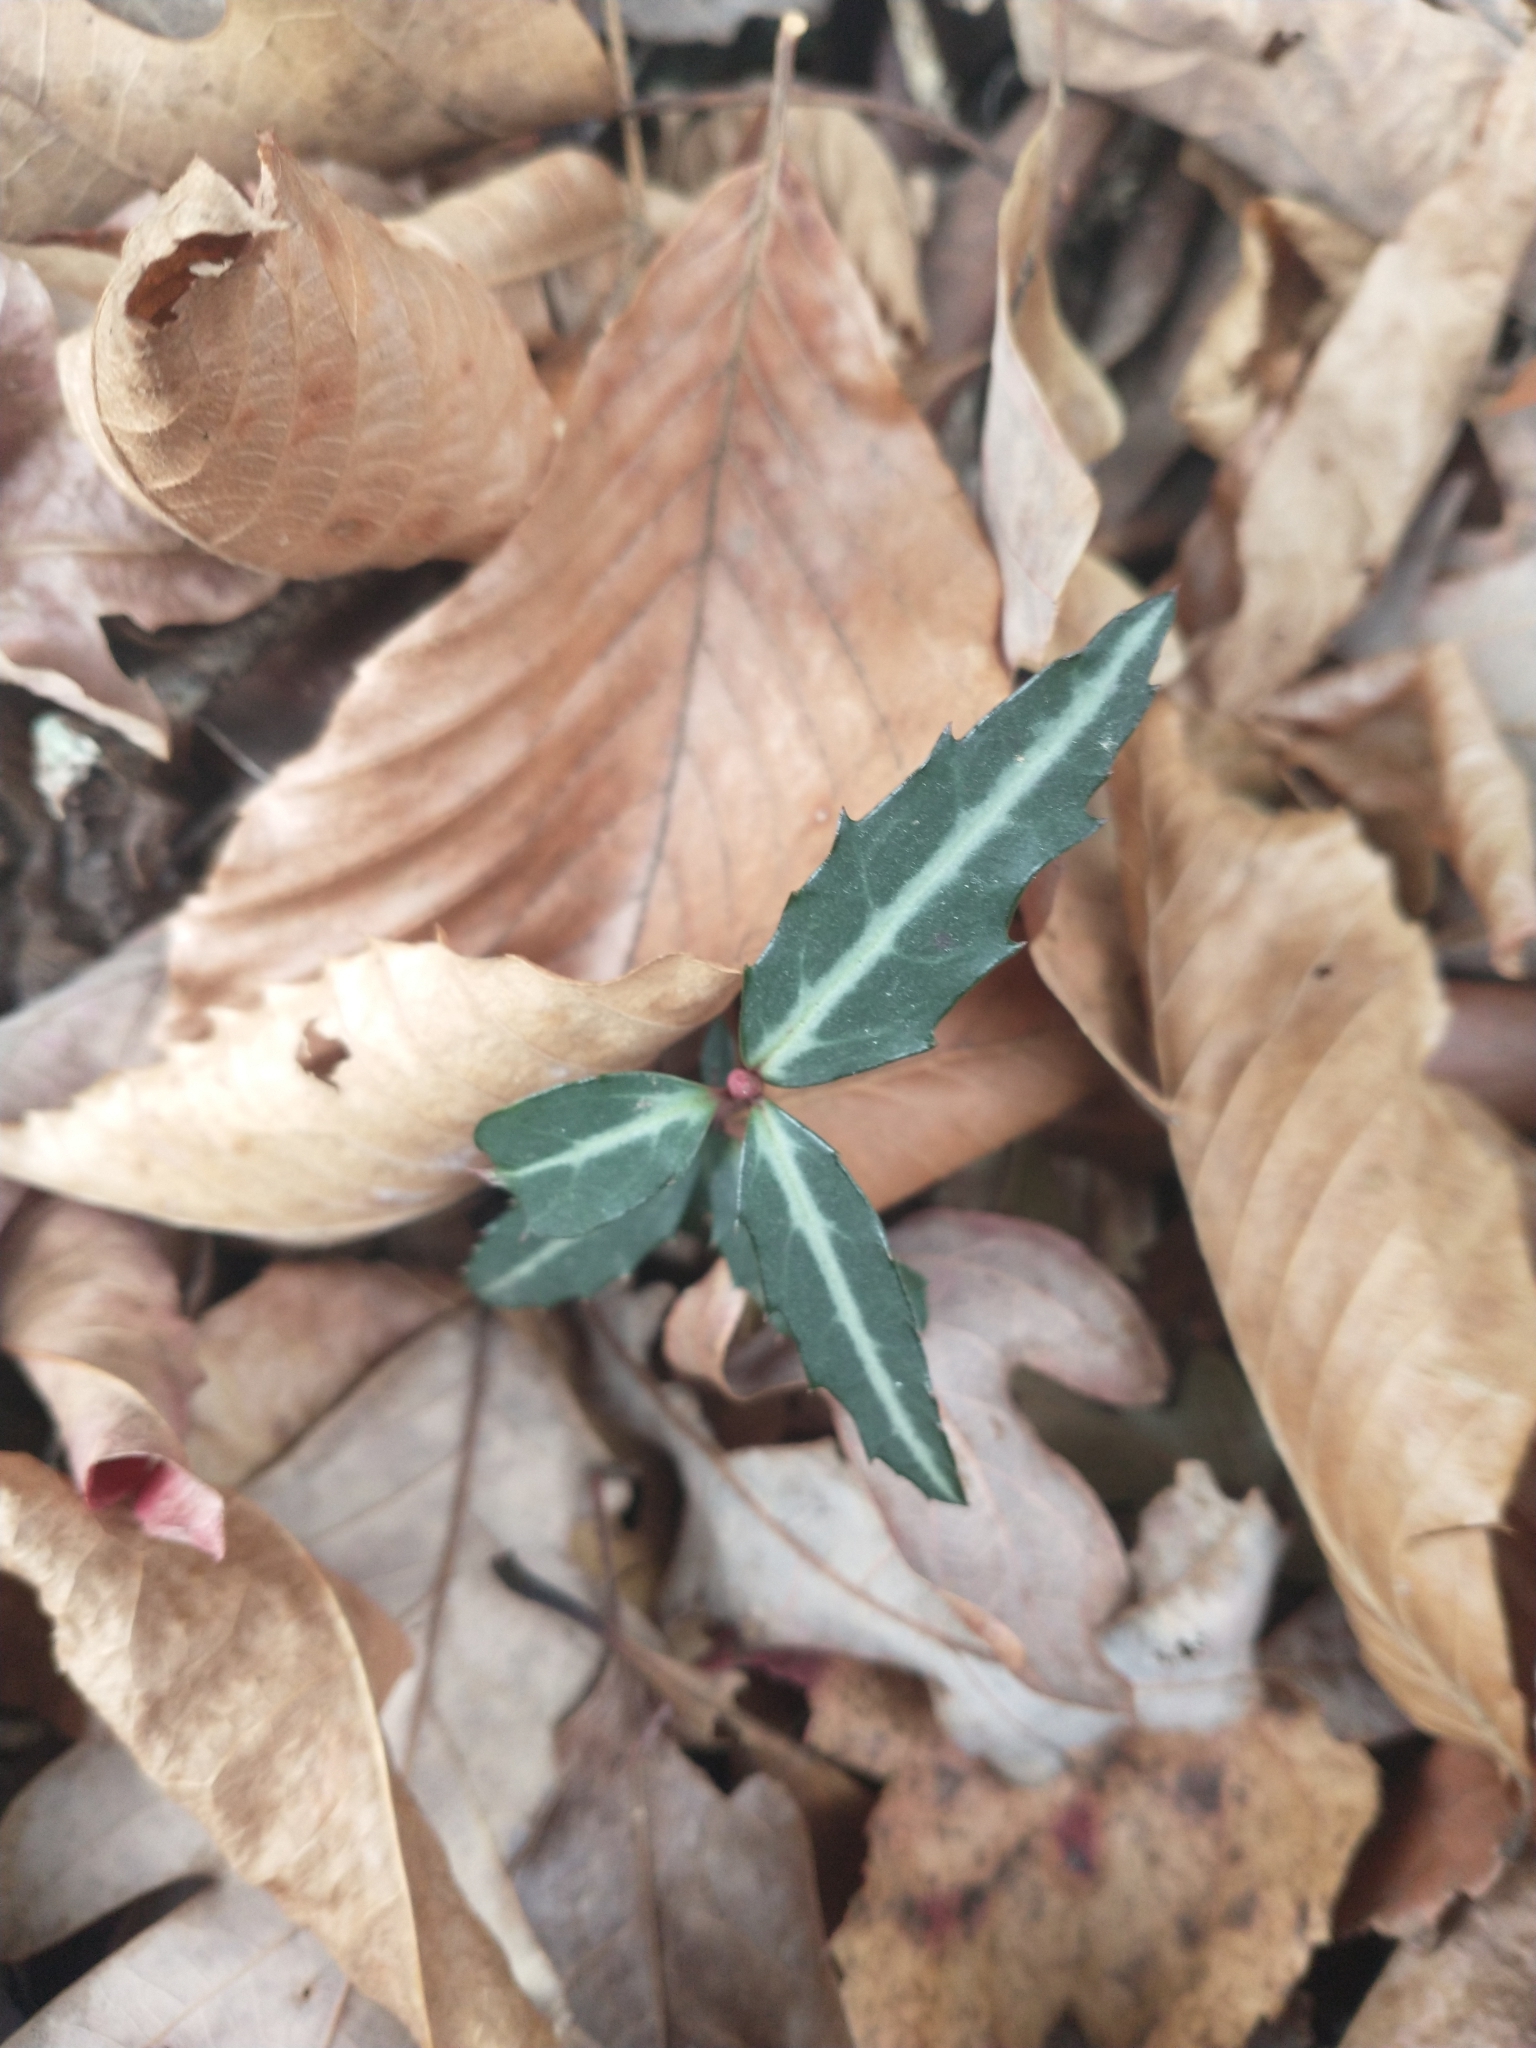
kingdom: Plantae
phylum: Tracheophyta
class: Magnoliopsida
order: Ericales
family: Ericaceae
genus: Chimaphila
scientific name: Chimaphila maculata
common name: Spotted pipsissewa
